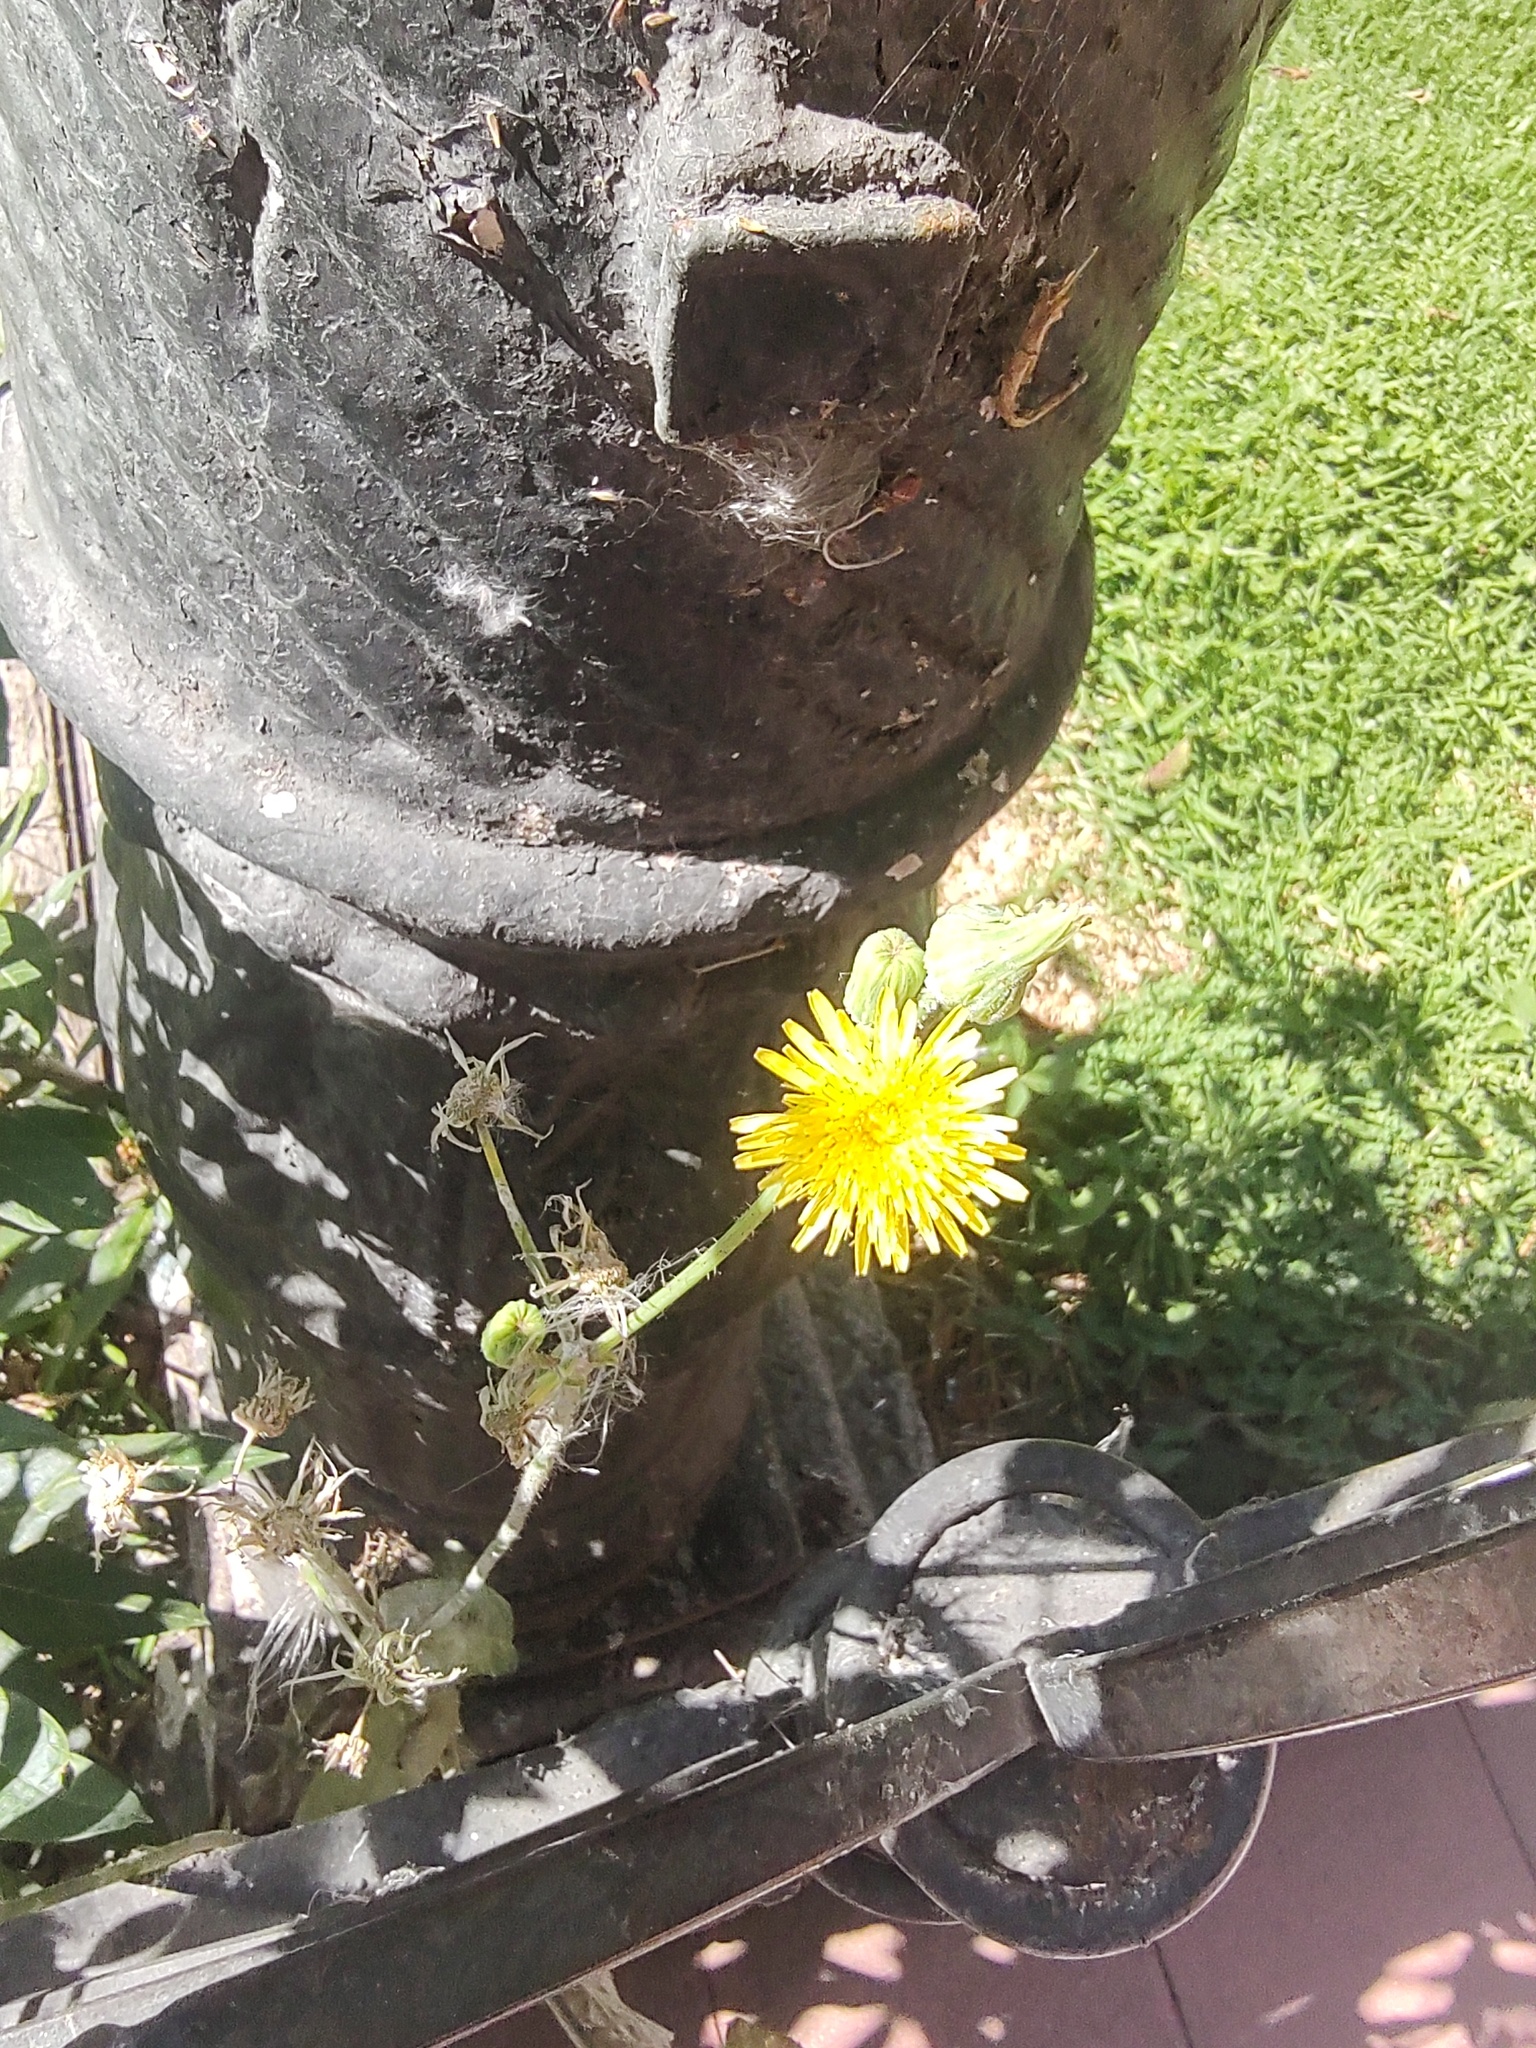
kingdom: Plantae
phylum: Tracheophyta
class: Magnoliopsida
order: Asterales
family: Asteraceae
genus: Sonchus
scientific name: Sonchus oleraceus
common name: Common sowthistle
